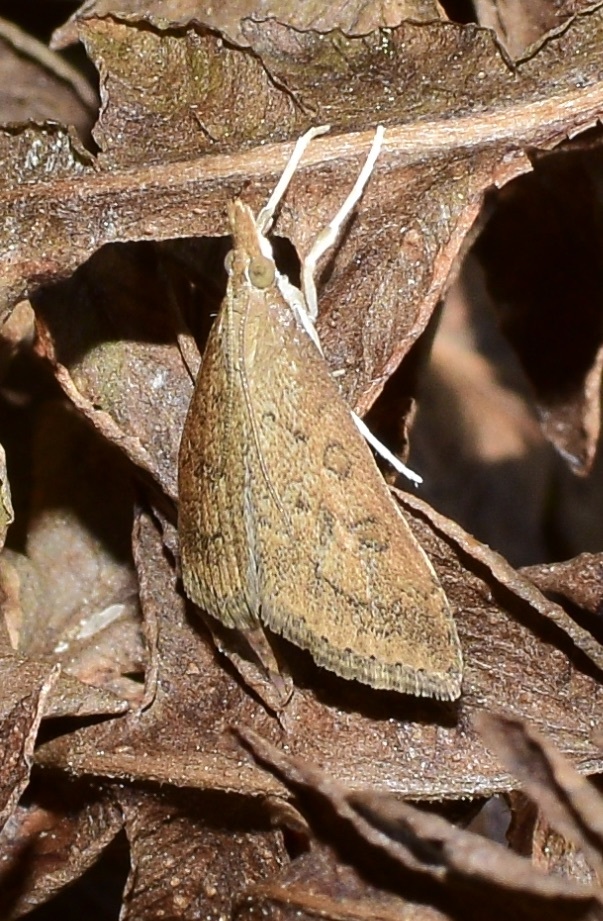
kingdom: Animalia
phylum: Arthropoda
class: Insecta
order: Lepidoptera
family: Crambidae
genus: Udea
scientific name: Udea rubigalis
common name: Celery leaftier moth
